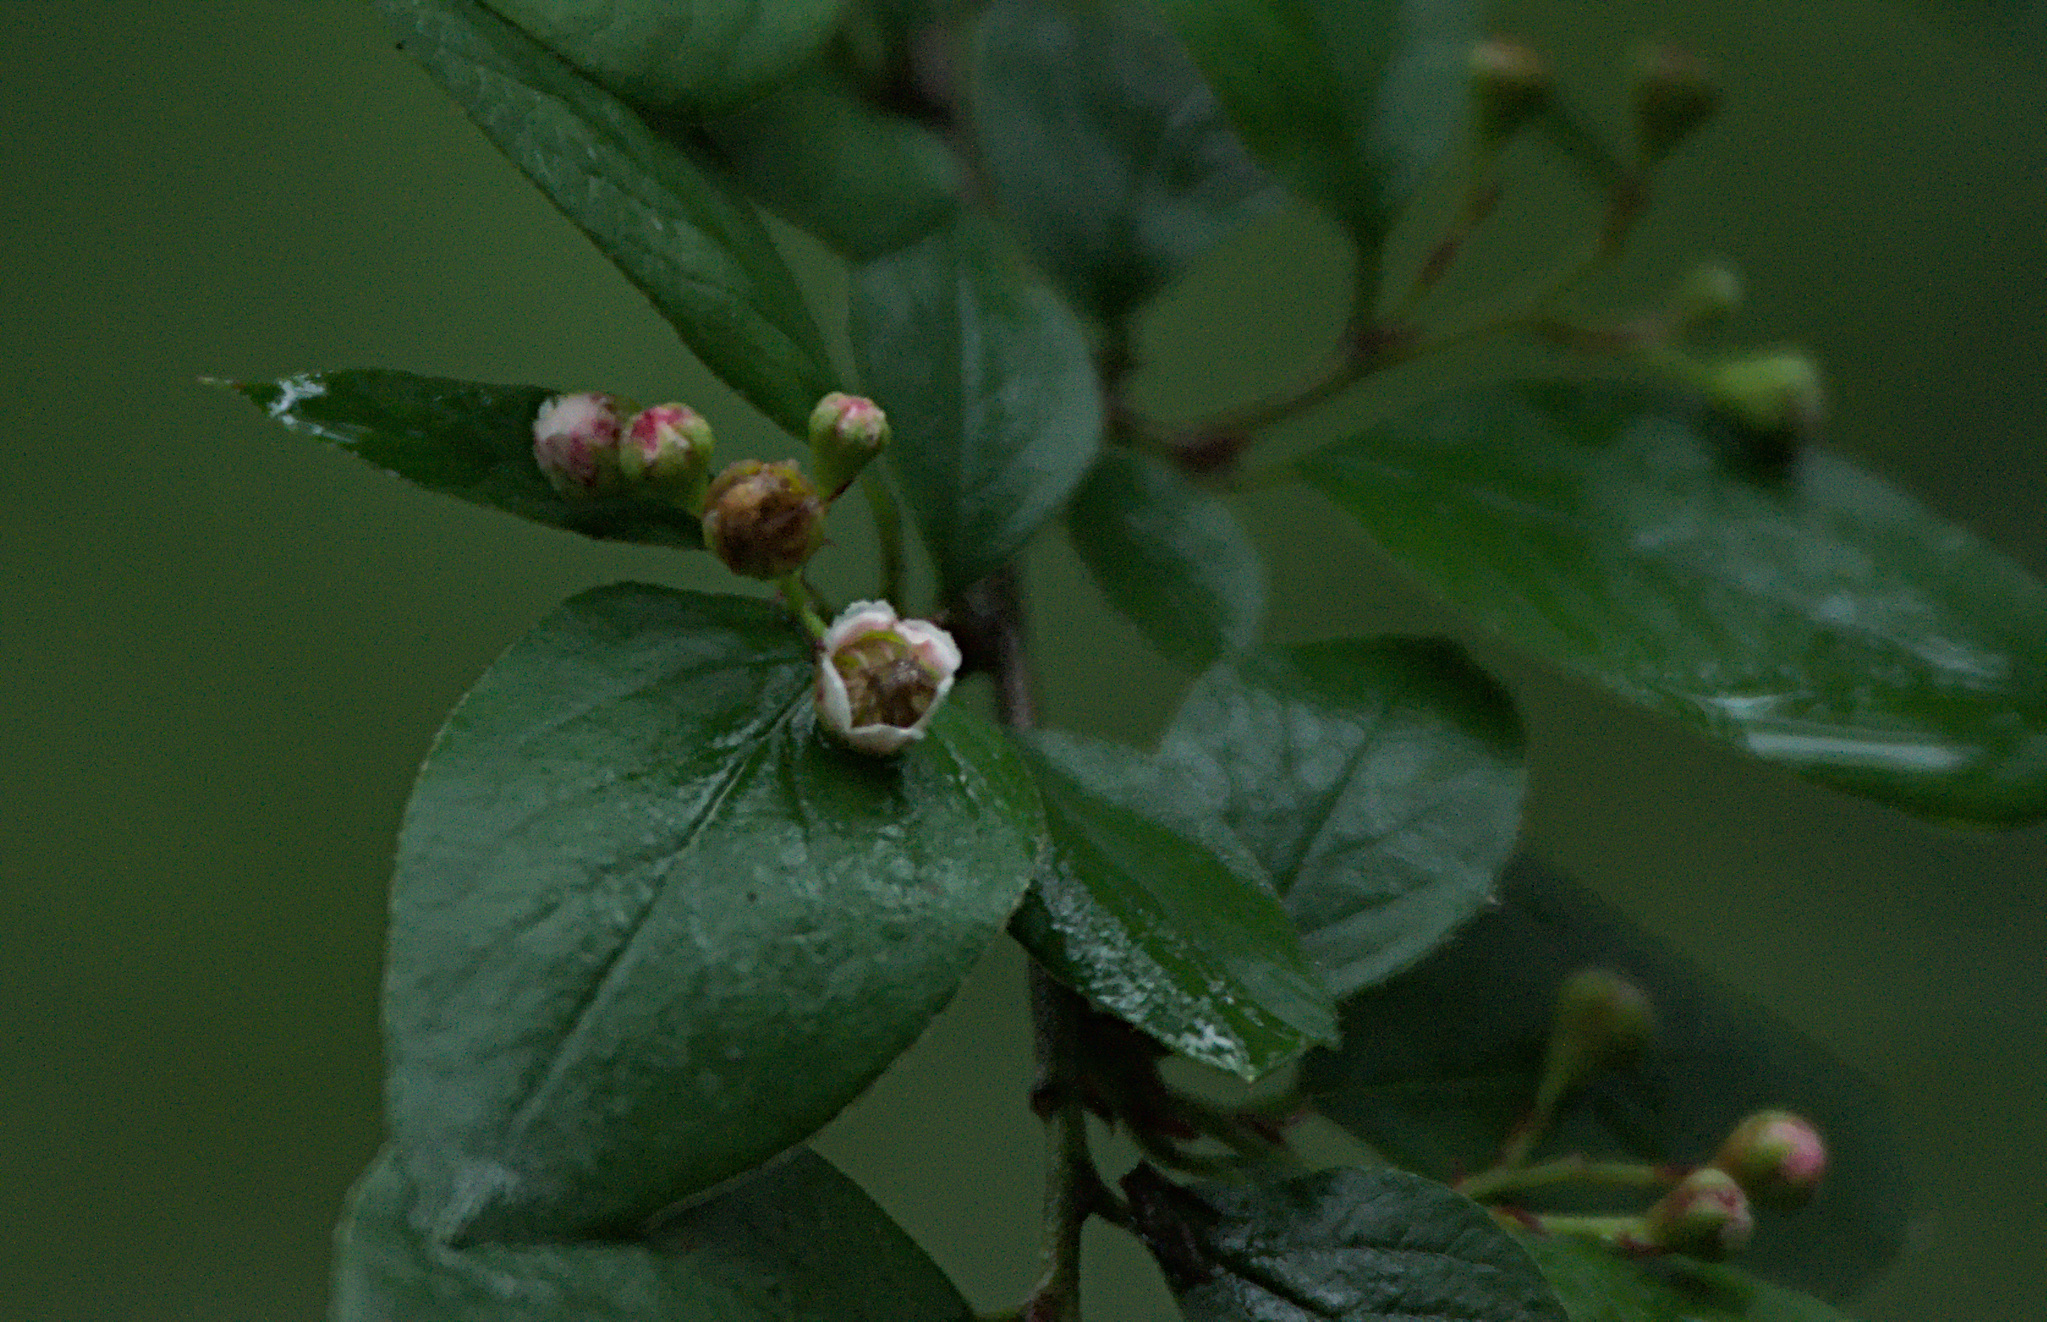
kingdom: Plantae
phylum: Tracheophyta
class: Magnoliopsida
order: Rosales
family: Rosaceae
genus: Cotoneaster
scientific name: Cotoneaster melanocarpus
